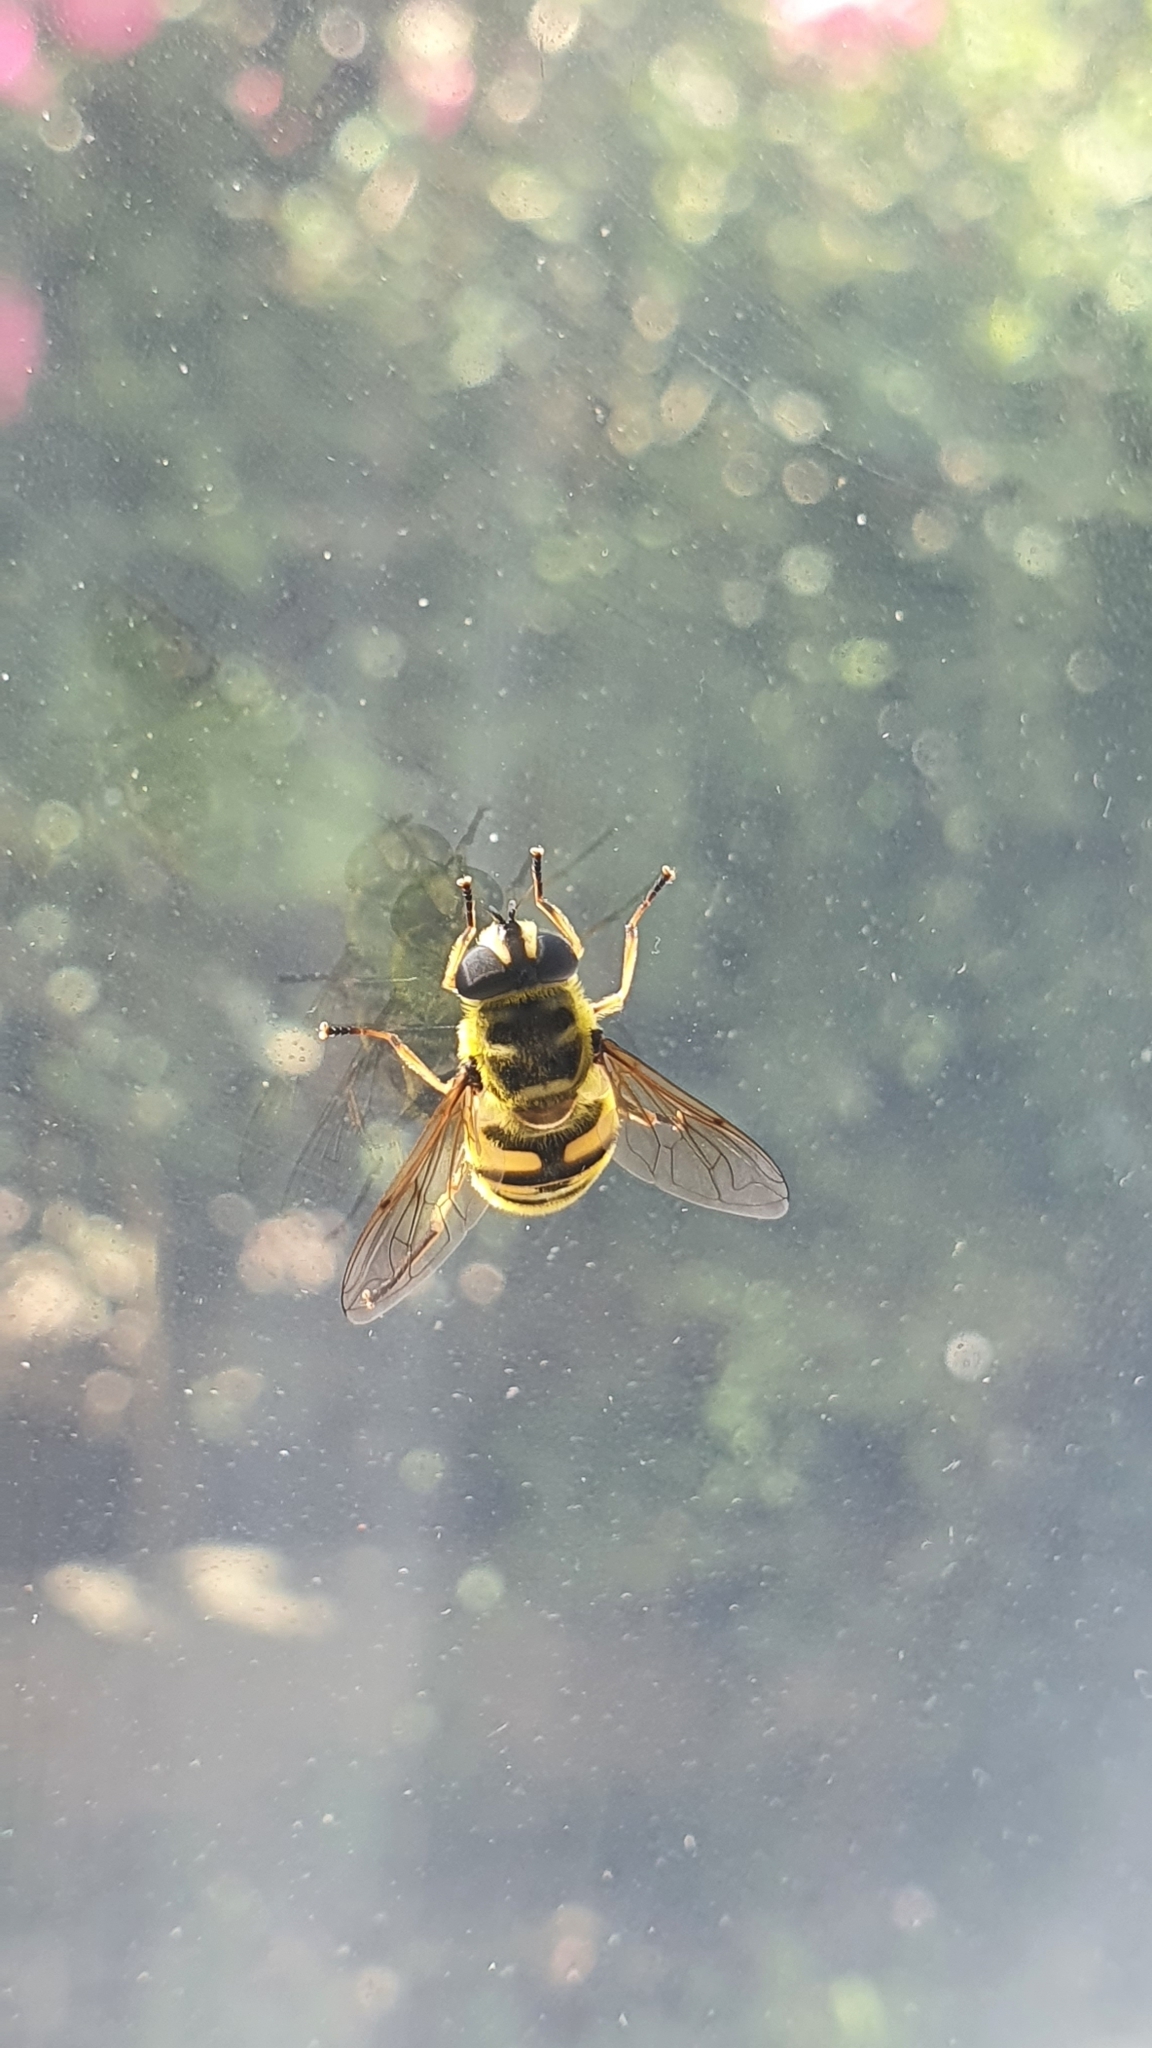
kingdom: Animalia
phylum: Arthropoda
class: Insecta
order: Diptera
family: Syrphidae
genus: Myathropa
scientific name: Myathropa florea
